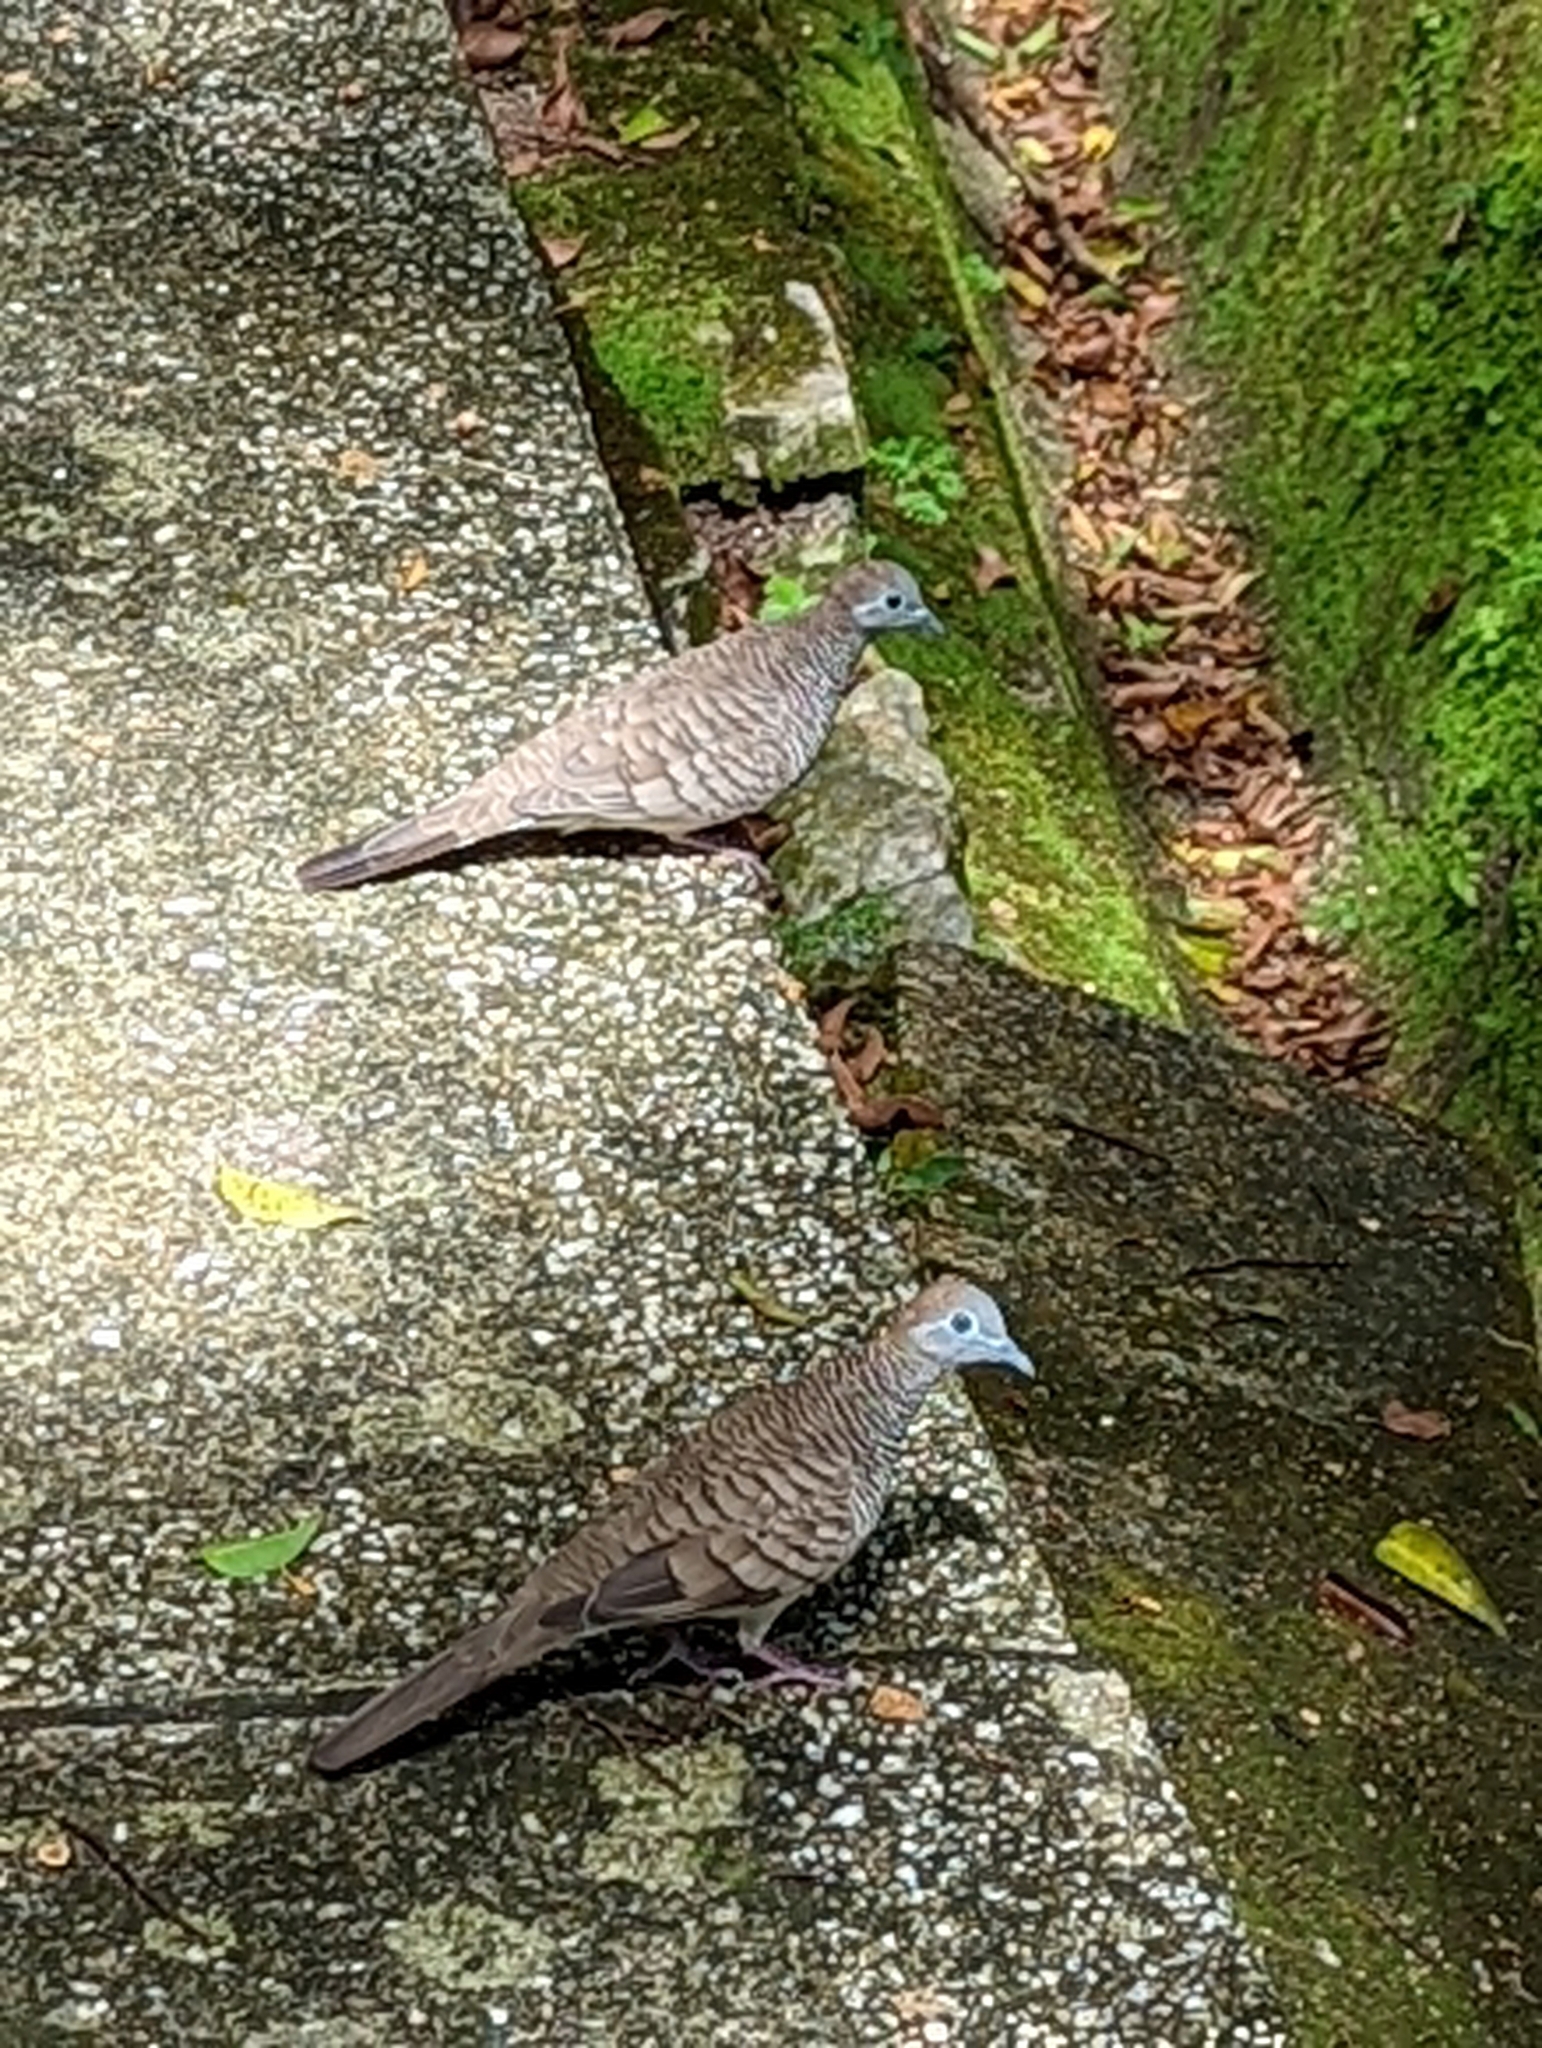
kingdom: Animalia
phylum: Chordata
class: Aves
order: Columbiformes
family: Columbidae
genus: Geopelia
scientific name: Geopelia striata
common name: Zebra dove
